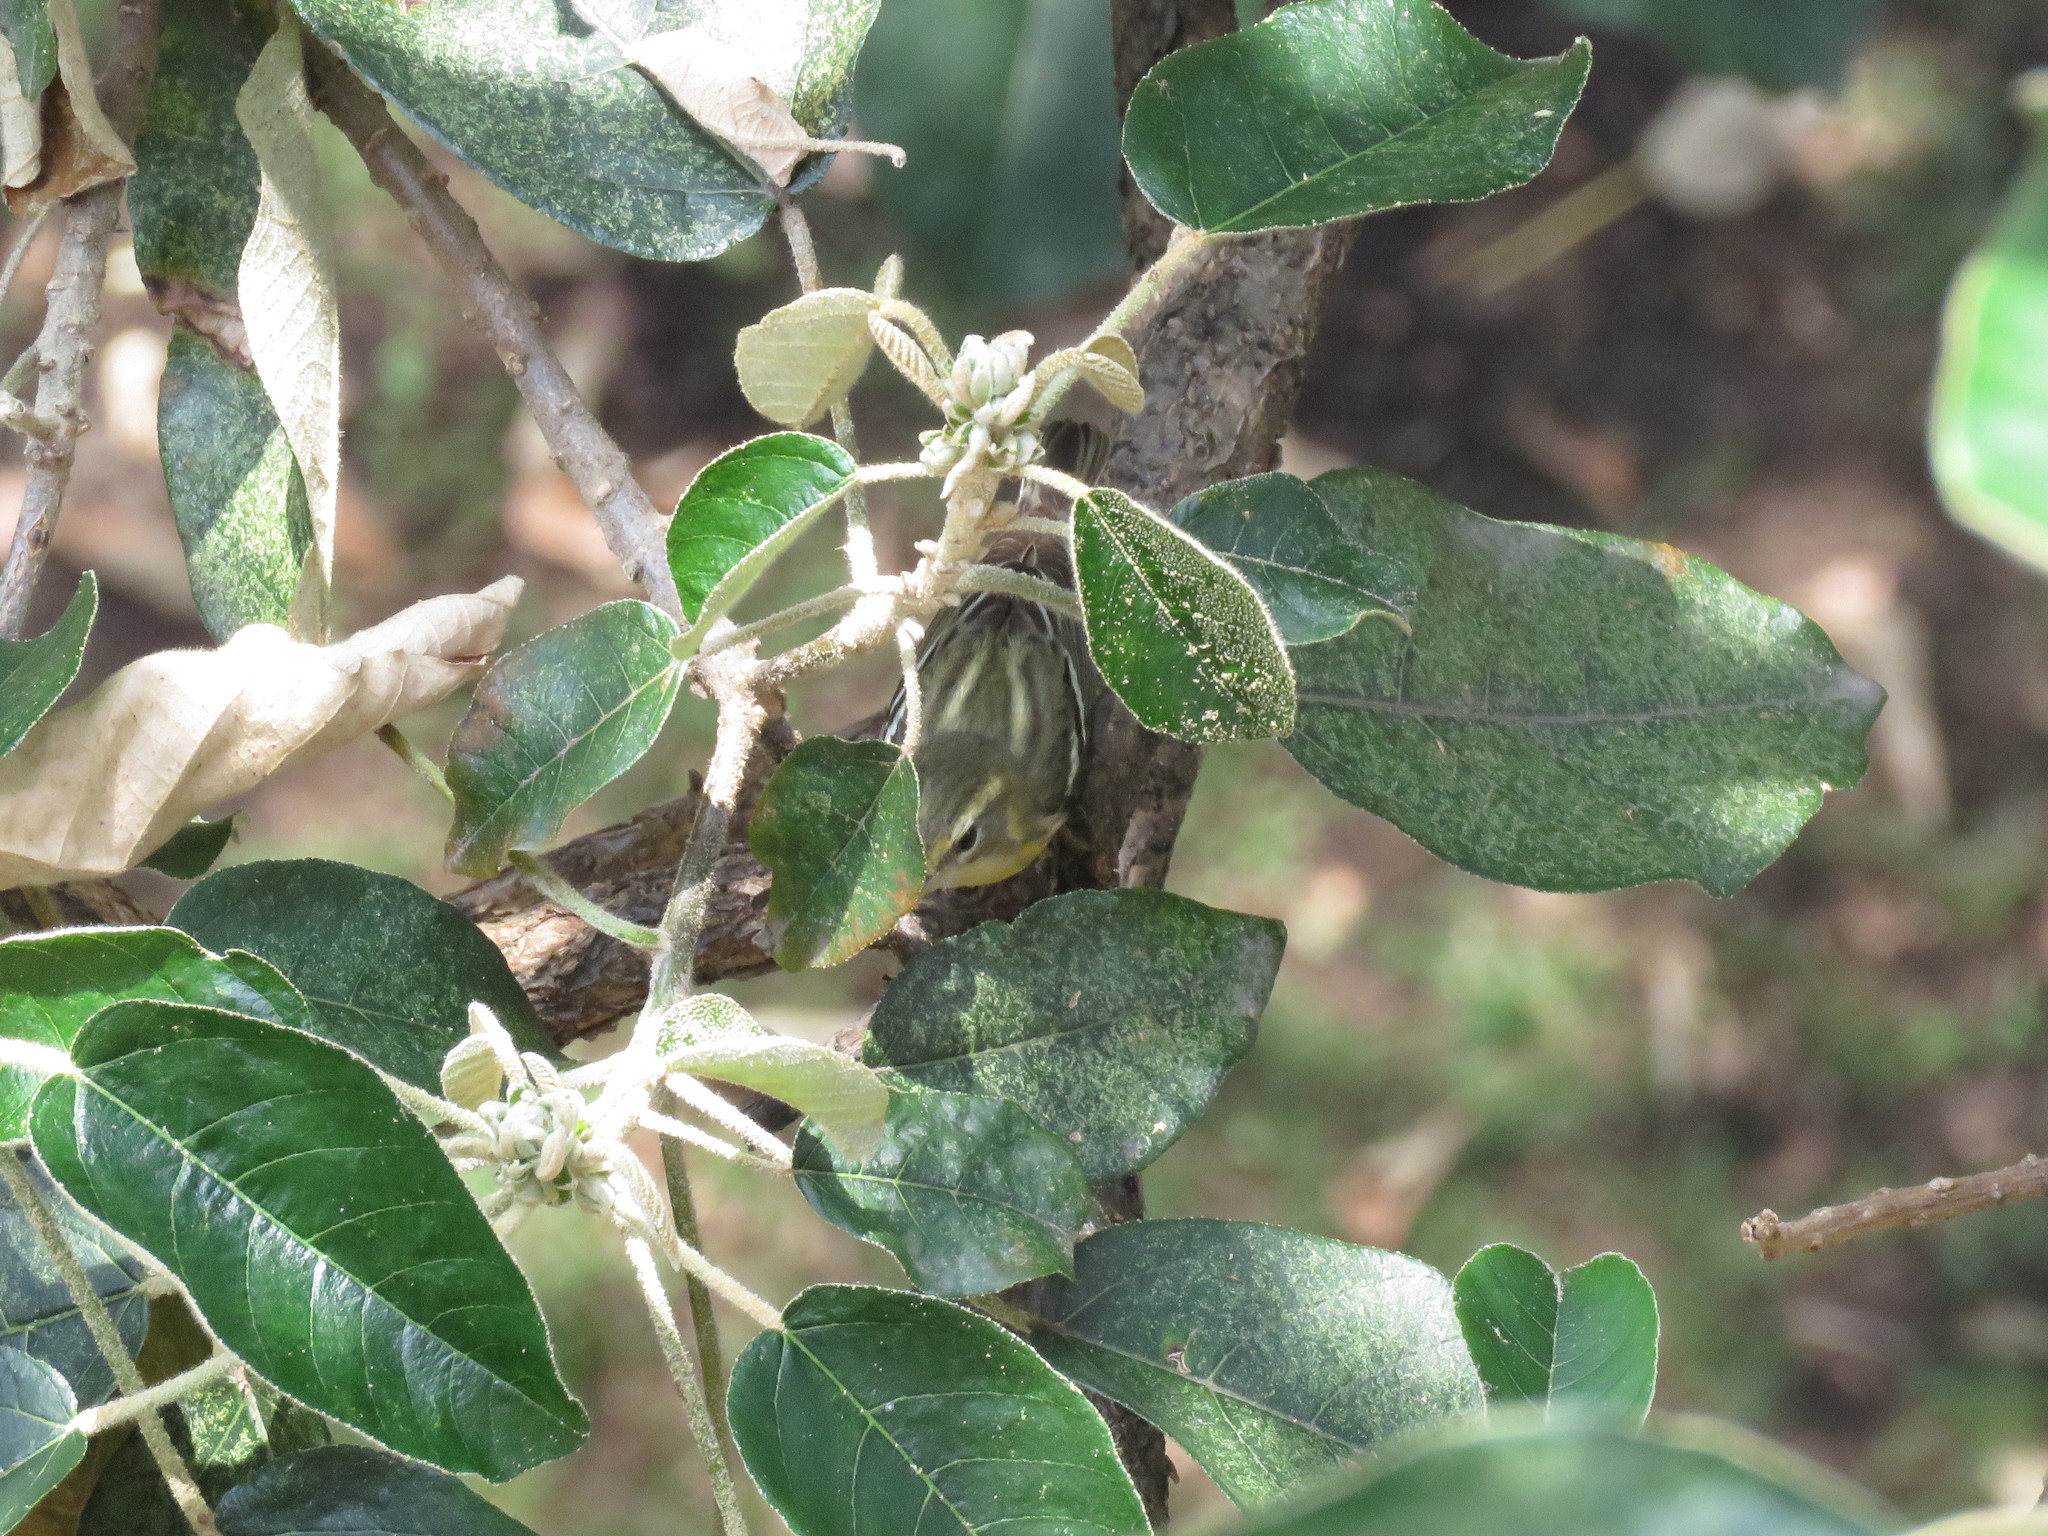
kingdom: Animalia
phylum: Chordata
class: Aves
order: Passeriformes
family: Parulidae
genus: Setophaga
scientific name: Setophaga fusca
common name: Blackburnian warbler
